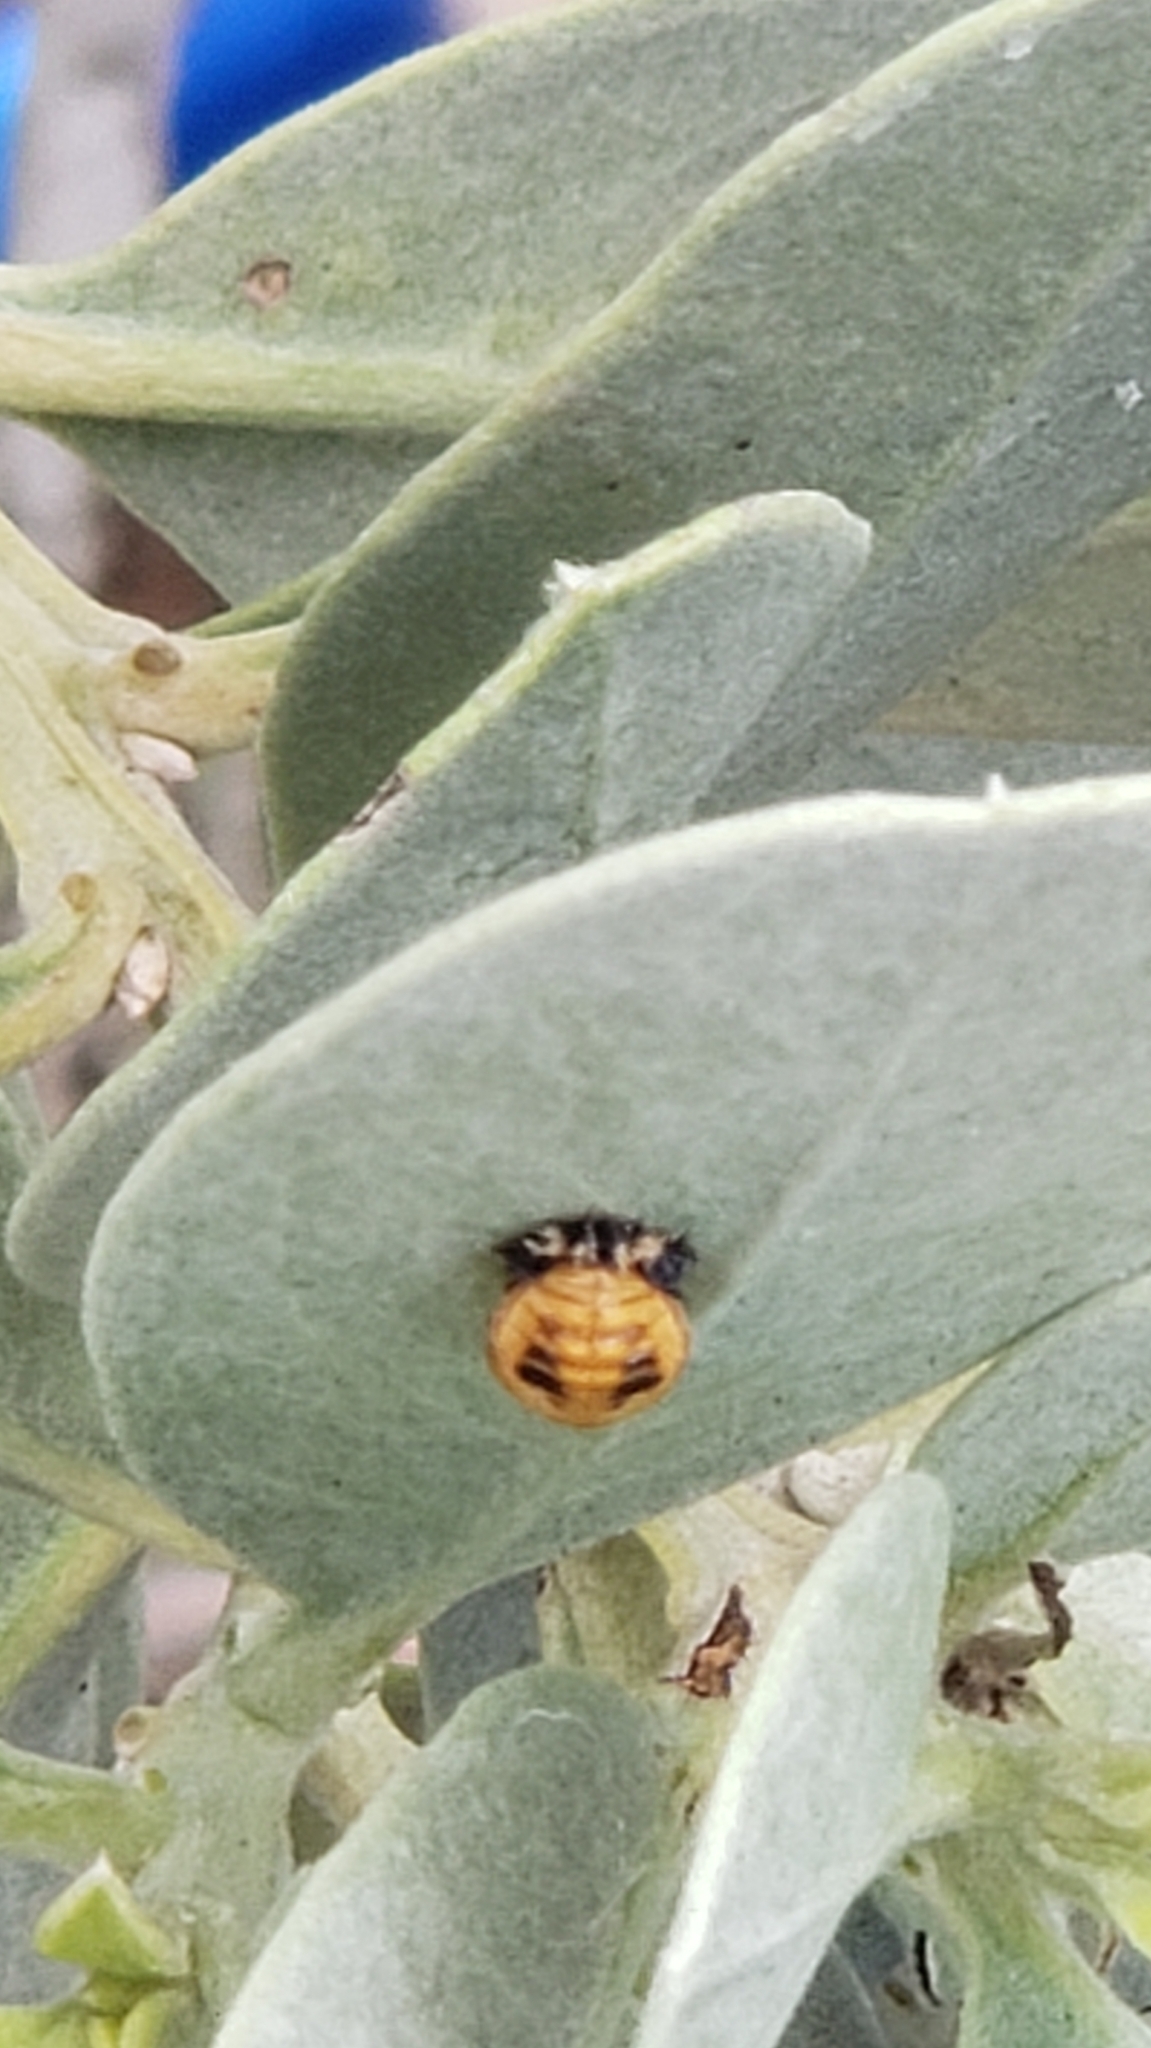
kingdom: Animalia
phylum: Arthropoda
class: Insecta
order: Coleoptera
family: Coccinellidae
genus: Harmonia
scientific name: Harmonia axyridis
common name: Harlequin ladybird
